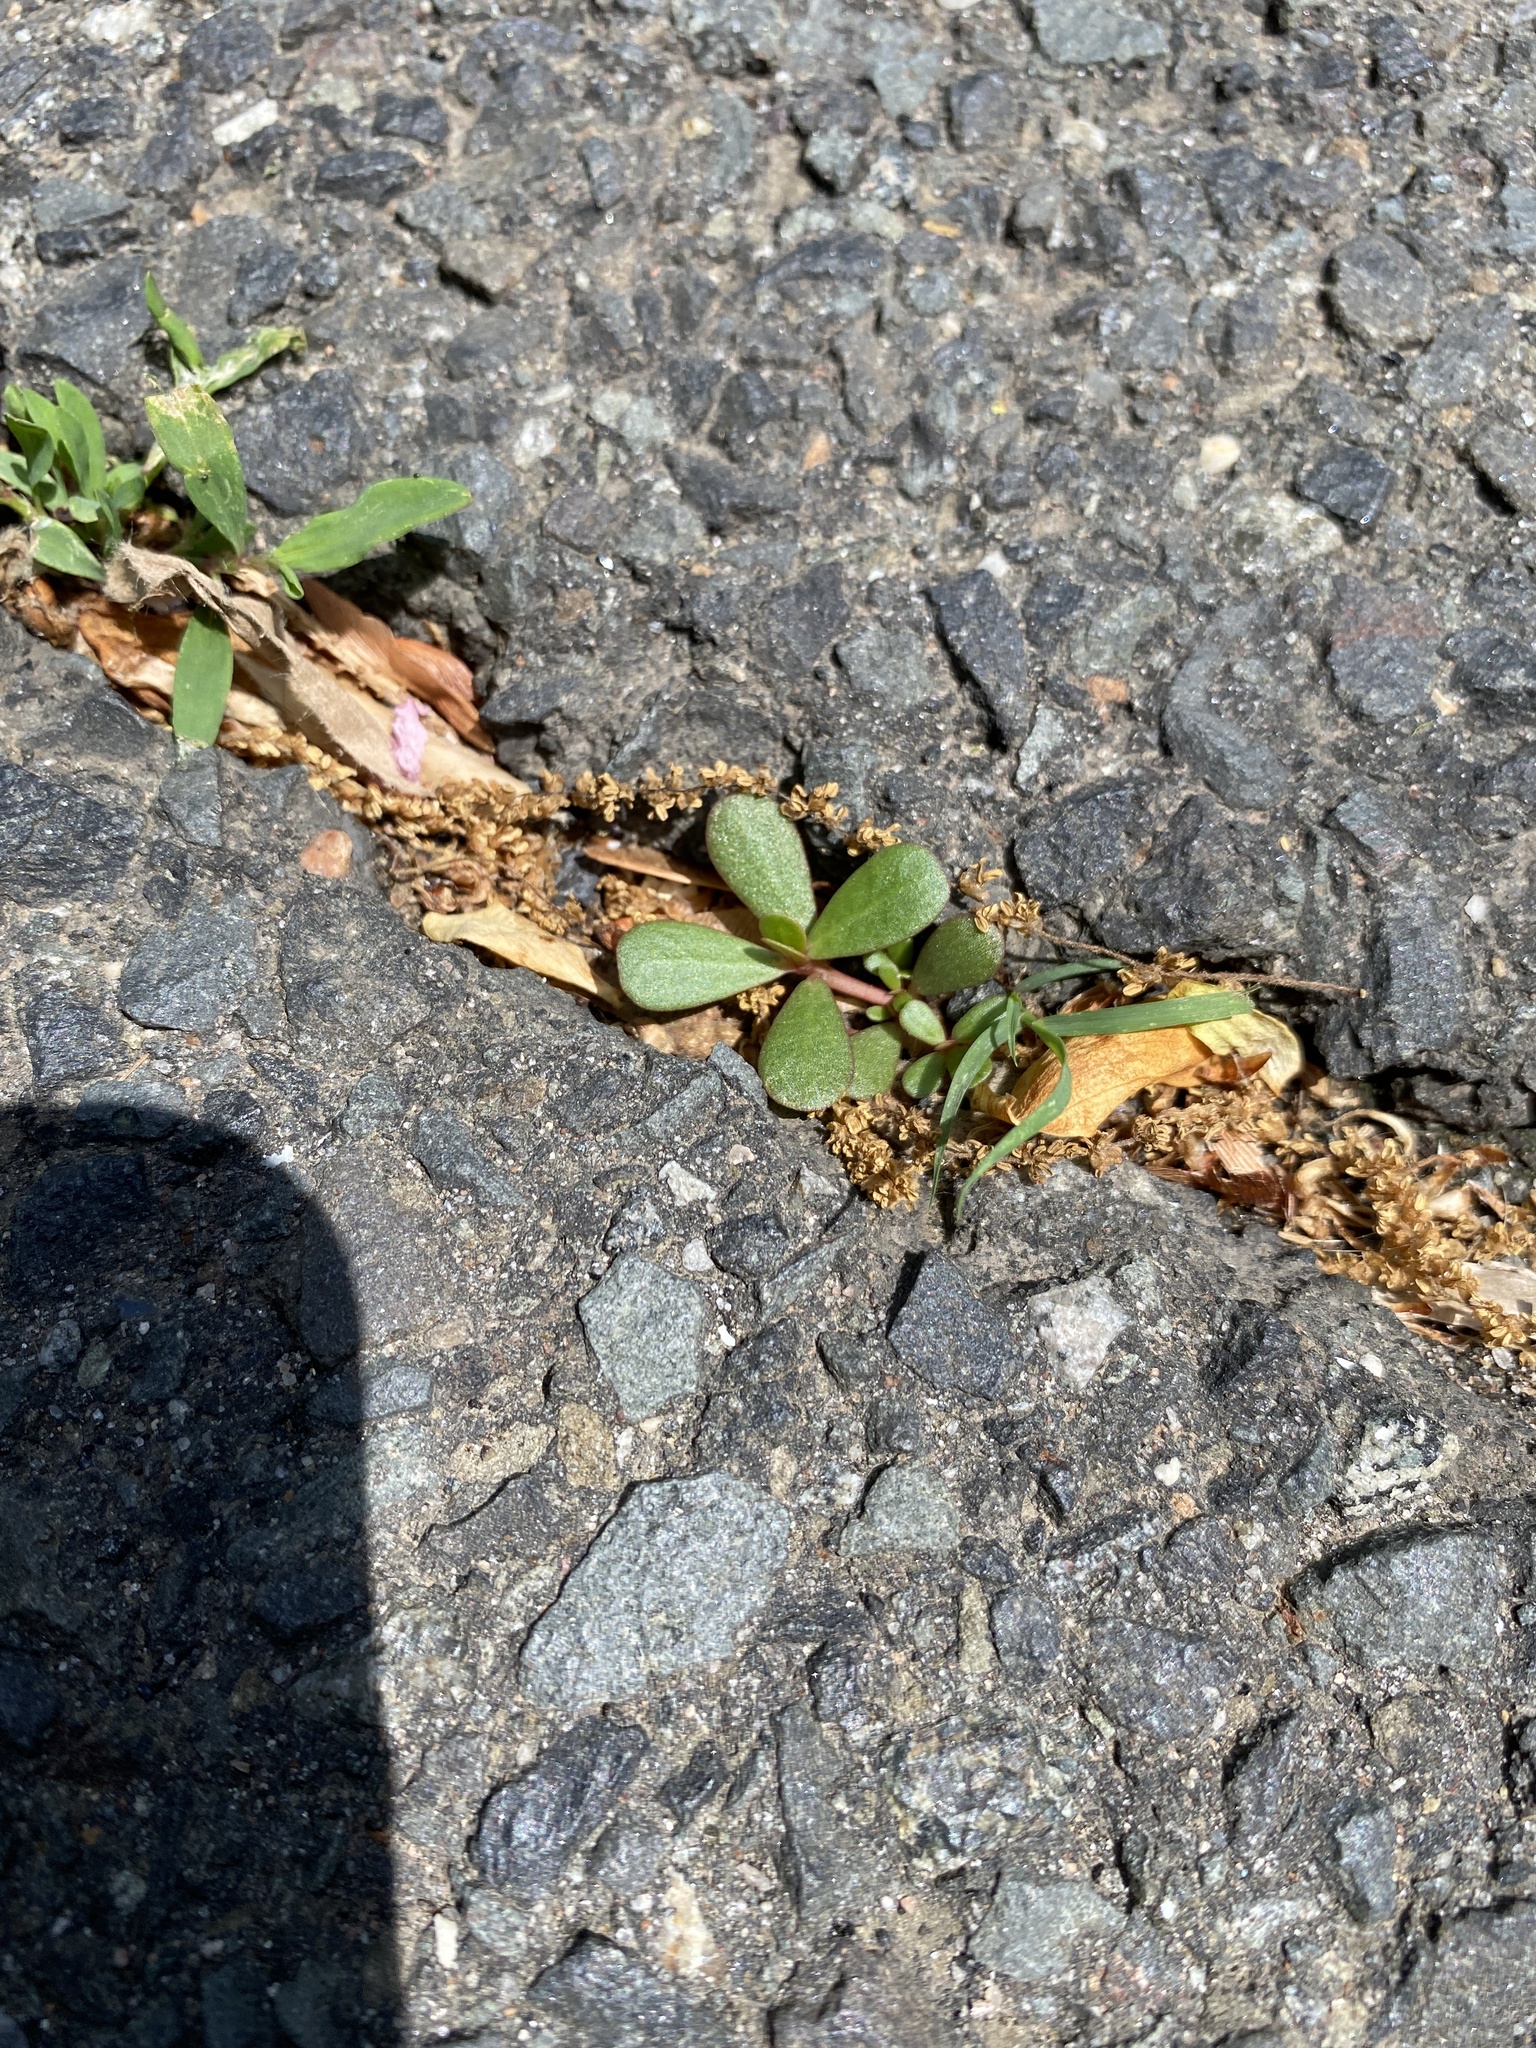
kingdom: Plantae
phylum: Tracheophyta
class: Magnoliopsida
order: Caryophyllales
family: Portulacaceae
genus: Portulaca
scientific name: Portulaca oleracea
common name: Common purslane
